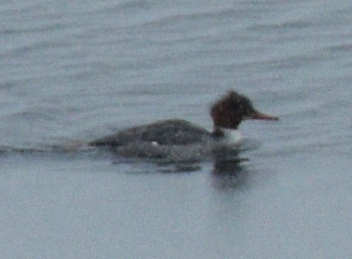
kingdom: Animalia
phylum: Chordata
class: Aves
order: Anseriformes
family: Anatidae
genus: Mergus
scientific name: Mergus merganser
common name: Common merganser
